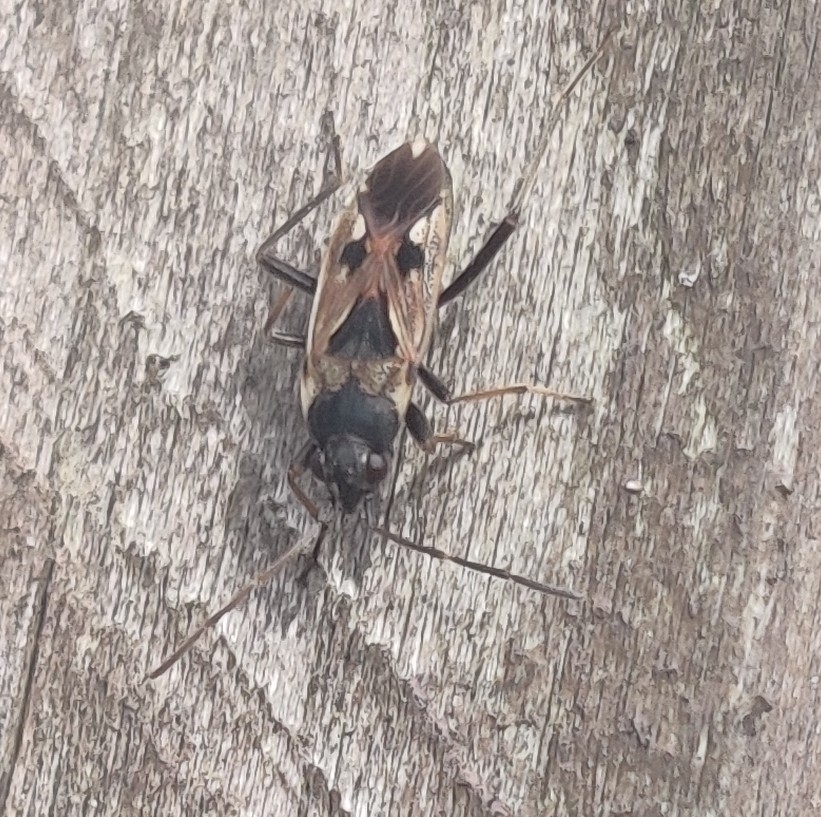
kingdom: Animalia
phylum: Arthropoda
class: Insecta
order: Hemiptera
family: Rhyparochromidae
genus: Rhyparochromus
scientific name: Rhyparochromus vulgaris
